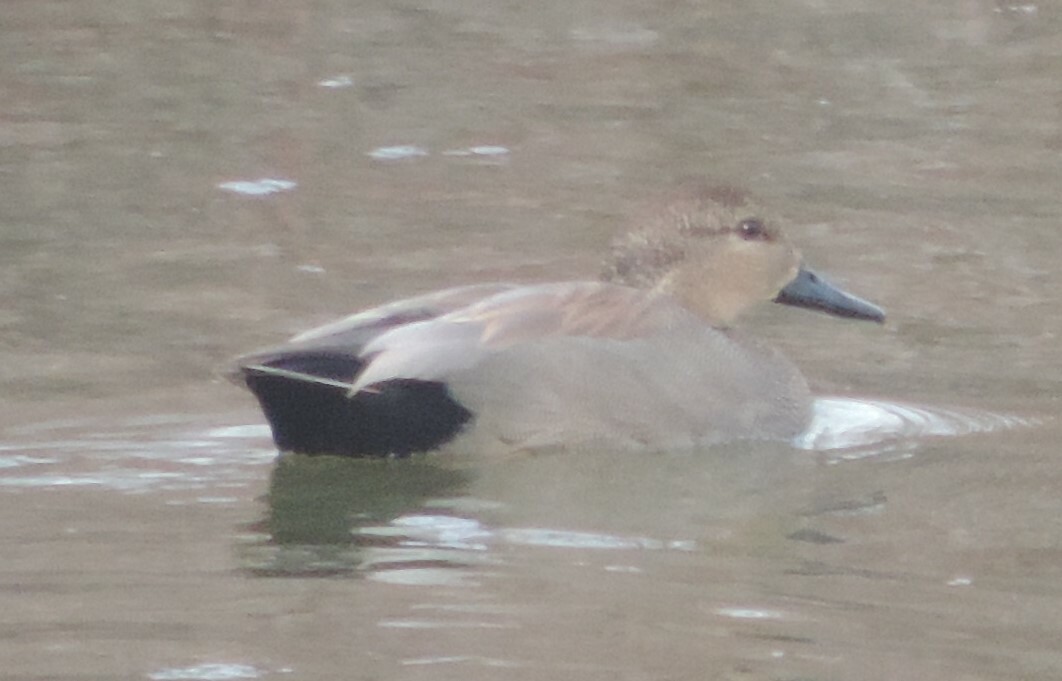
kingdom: Animalia
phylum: Chordata
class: Aves
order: Anseriformes
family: Anatidae
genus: Mareca
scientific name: Mareca strepera
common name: Gadwall
